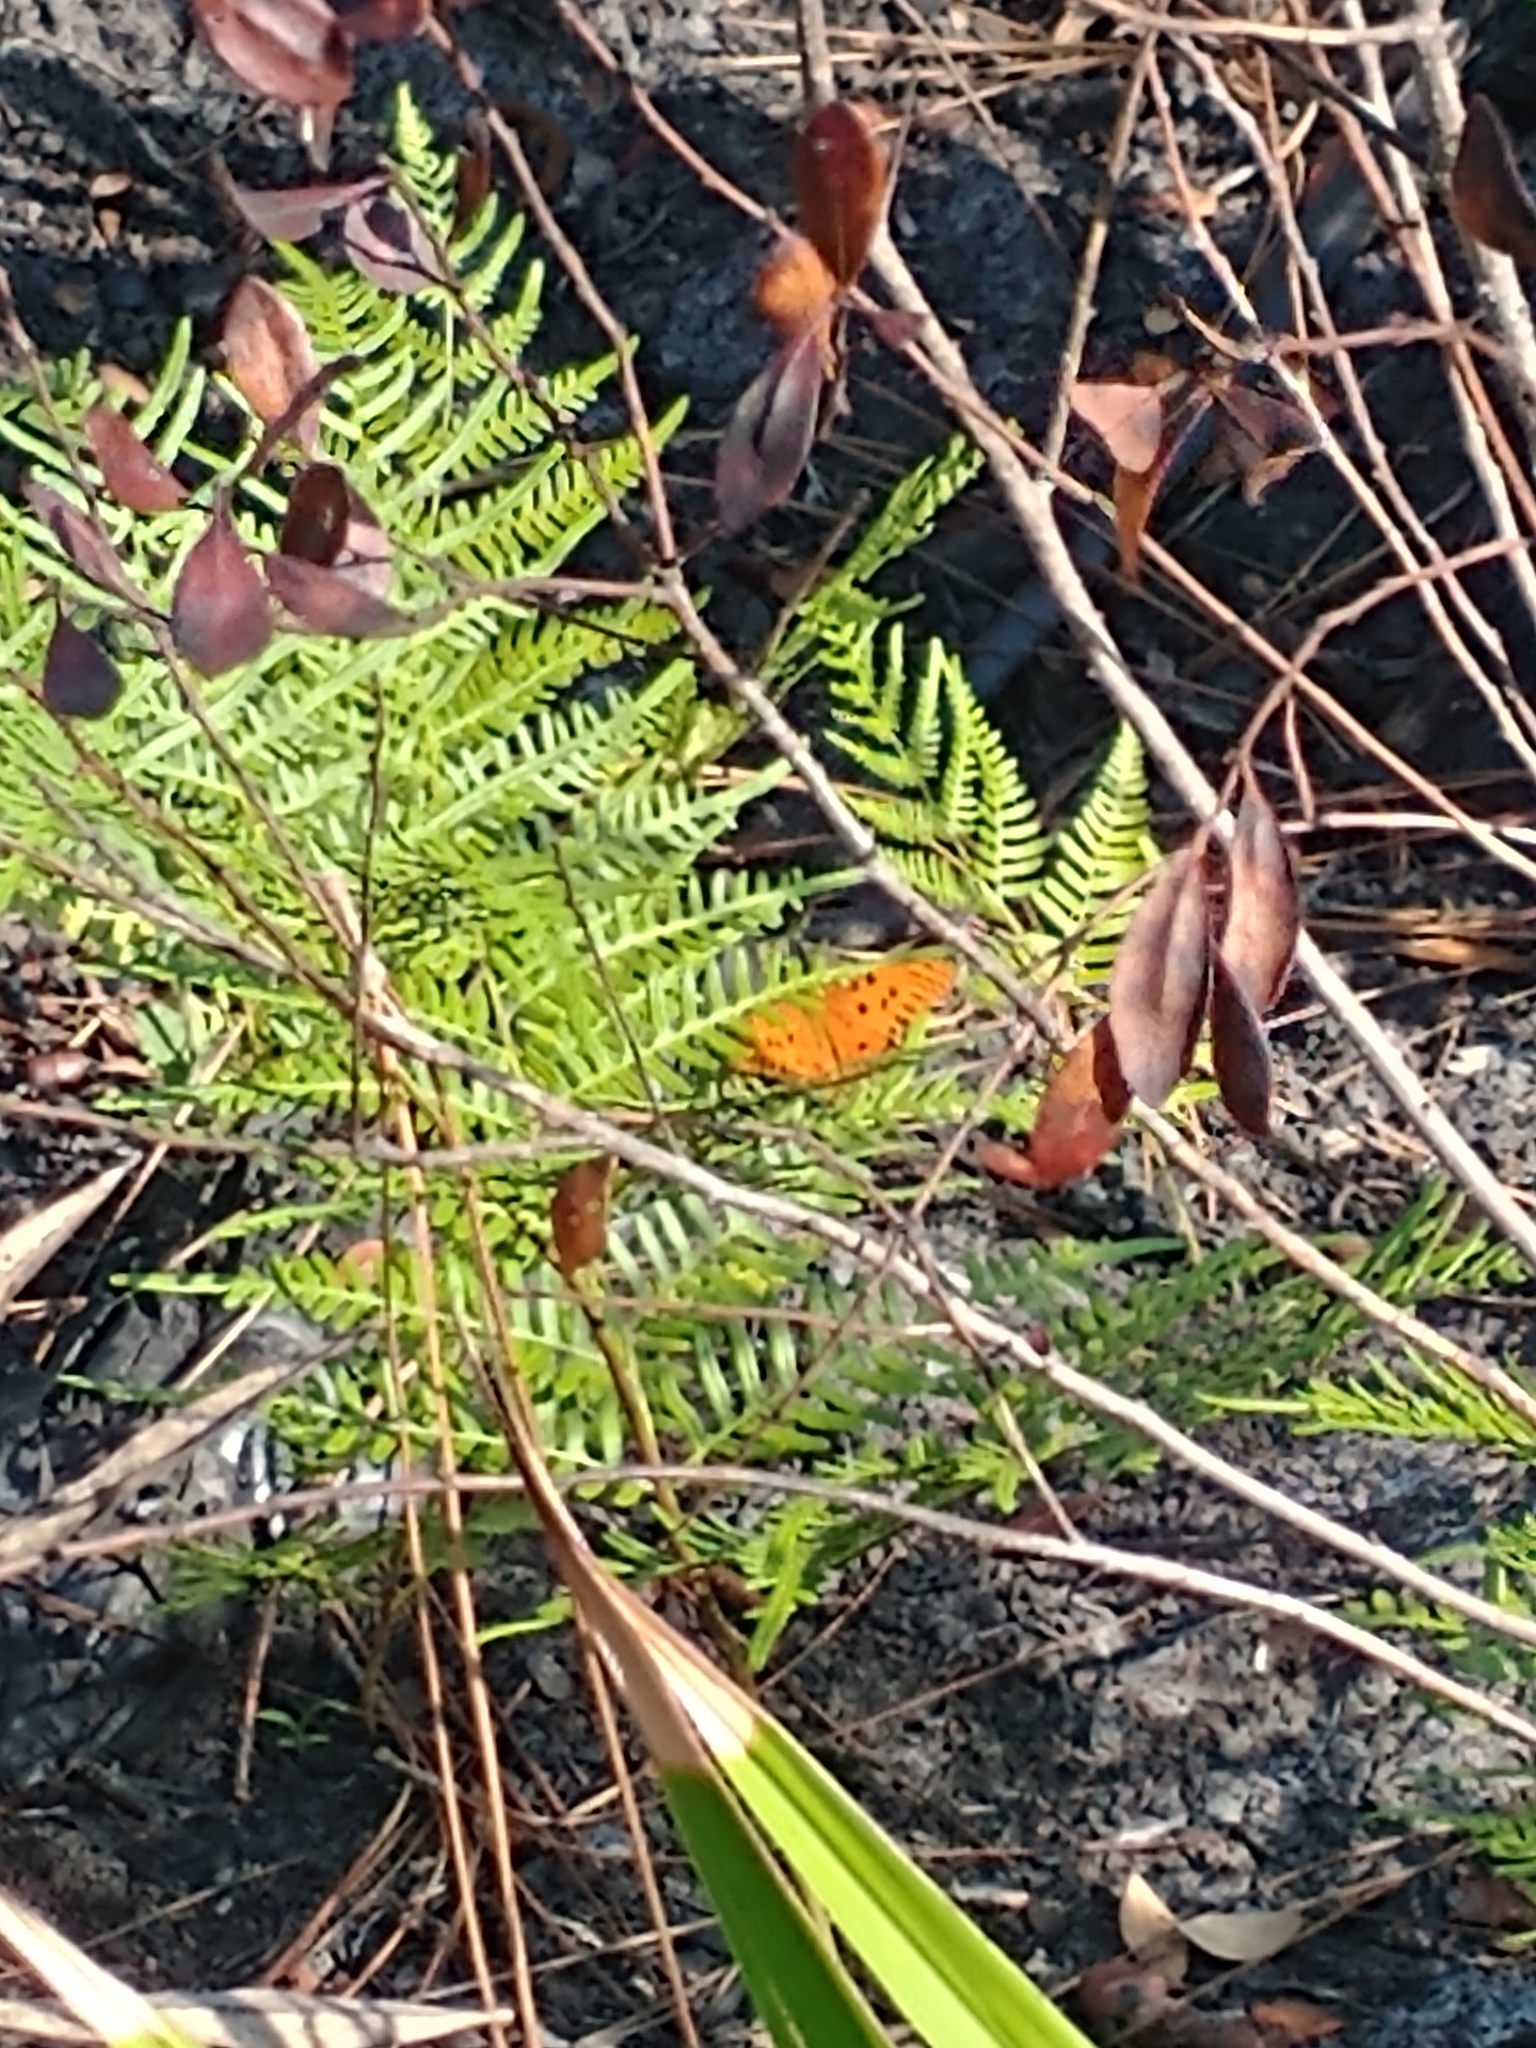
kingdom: Animalia
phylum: Arthropoda
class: Insecta
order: Lepidoptera
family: Nymphalidae
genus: Dione
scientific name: Dione vanillae
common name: Gulf fritillary
